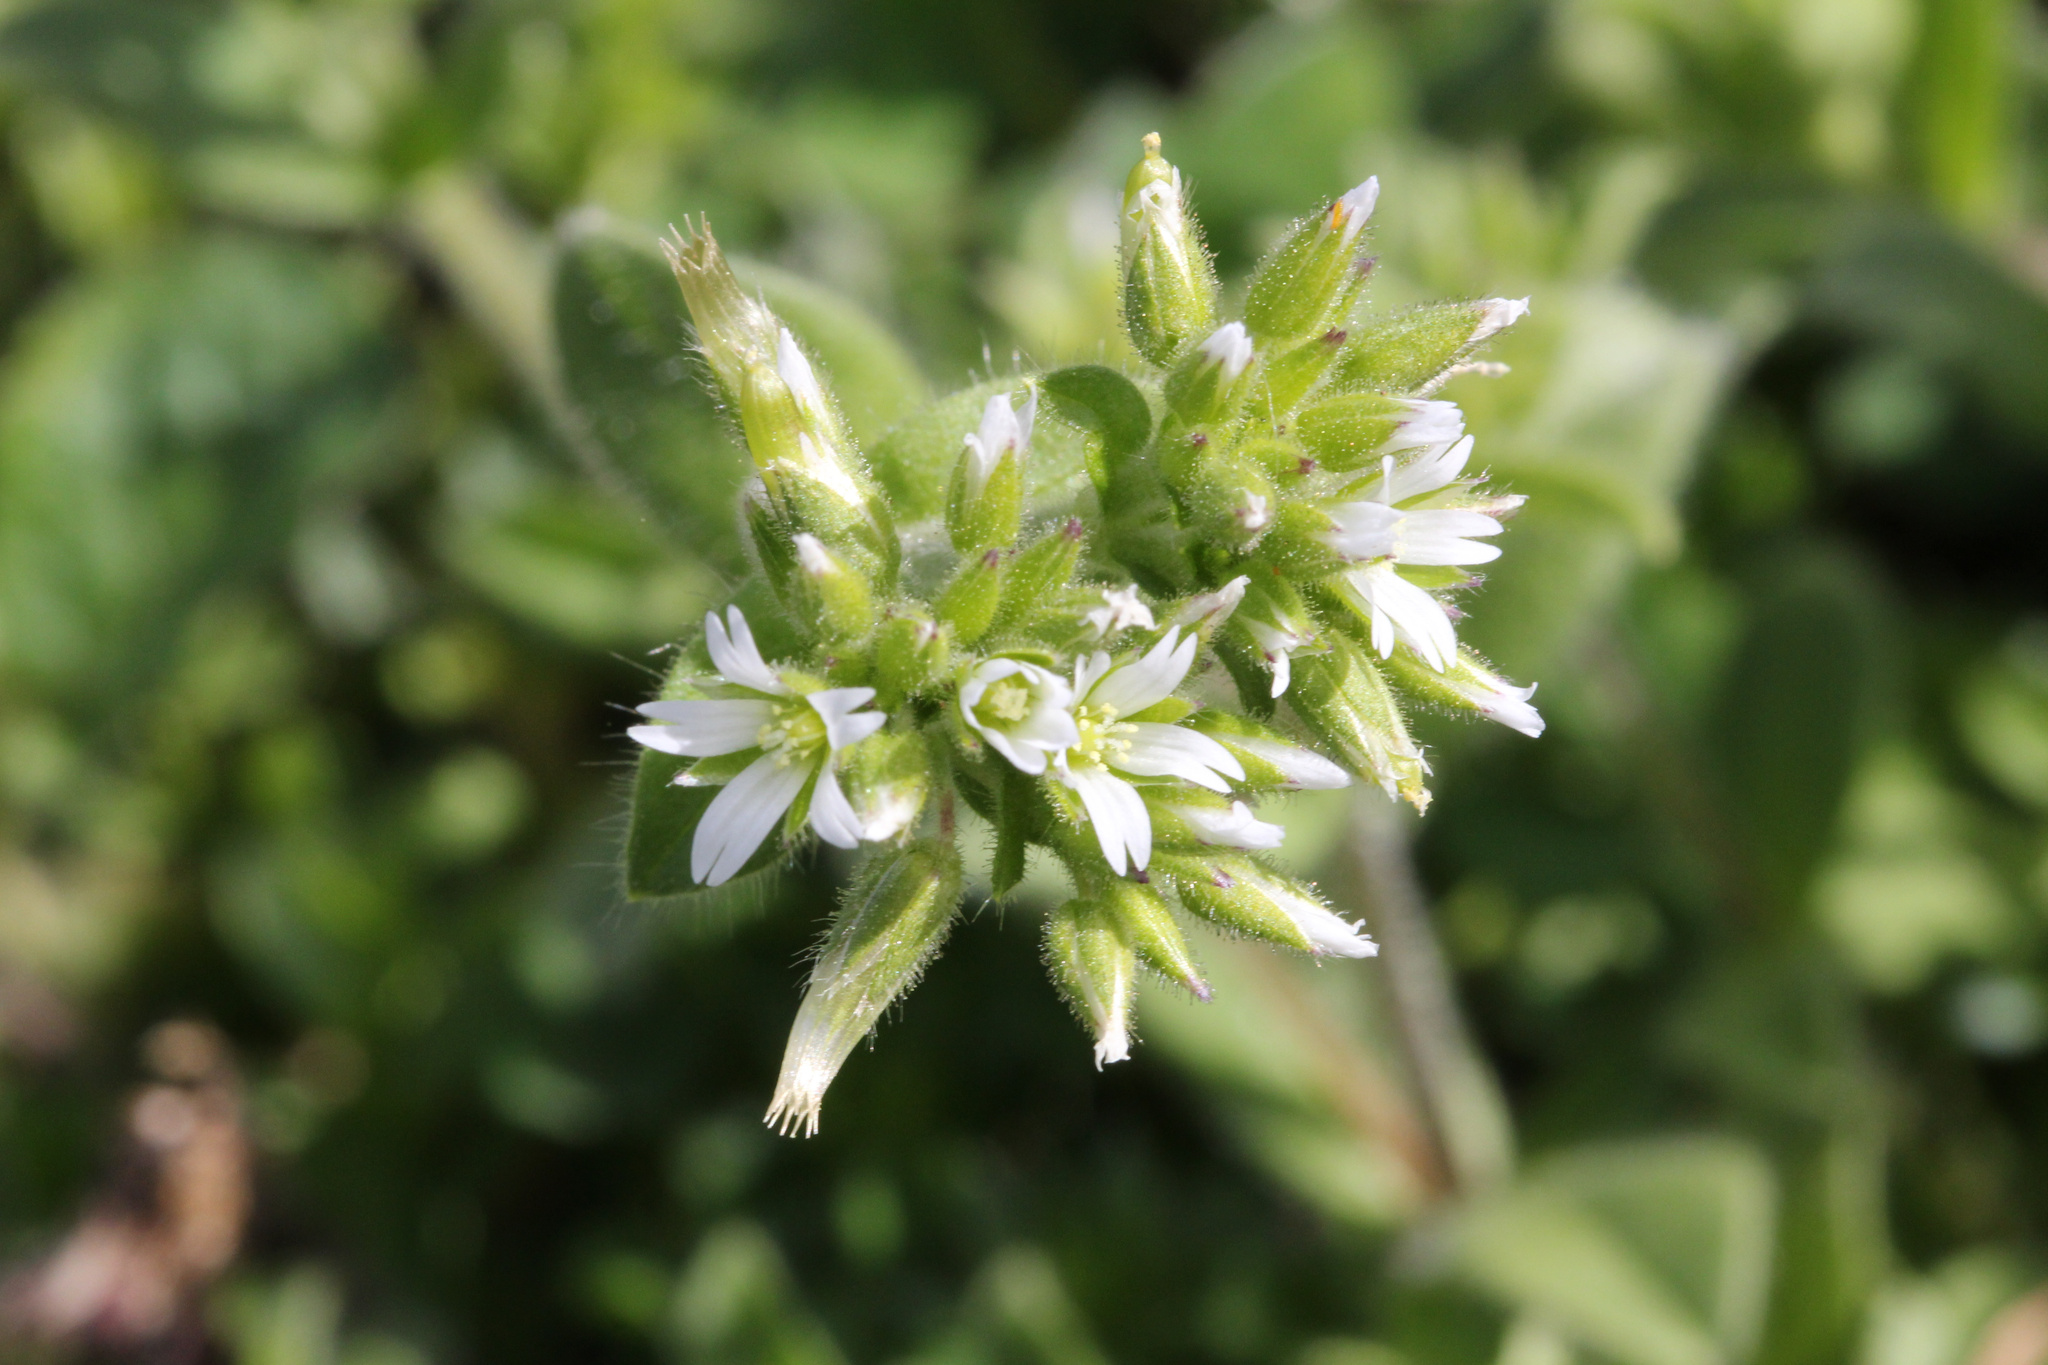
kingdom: Plantae
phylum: Tracheophyta
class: Magnoliopsida
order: Caryophyllales
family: Caryophyllaceae
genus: Cerastium
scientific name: Cerastium glomeratum
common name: Sticky chickweed
